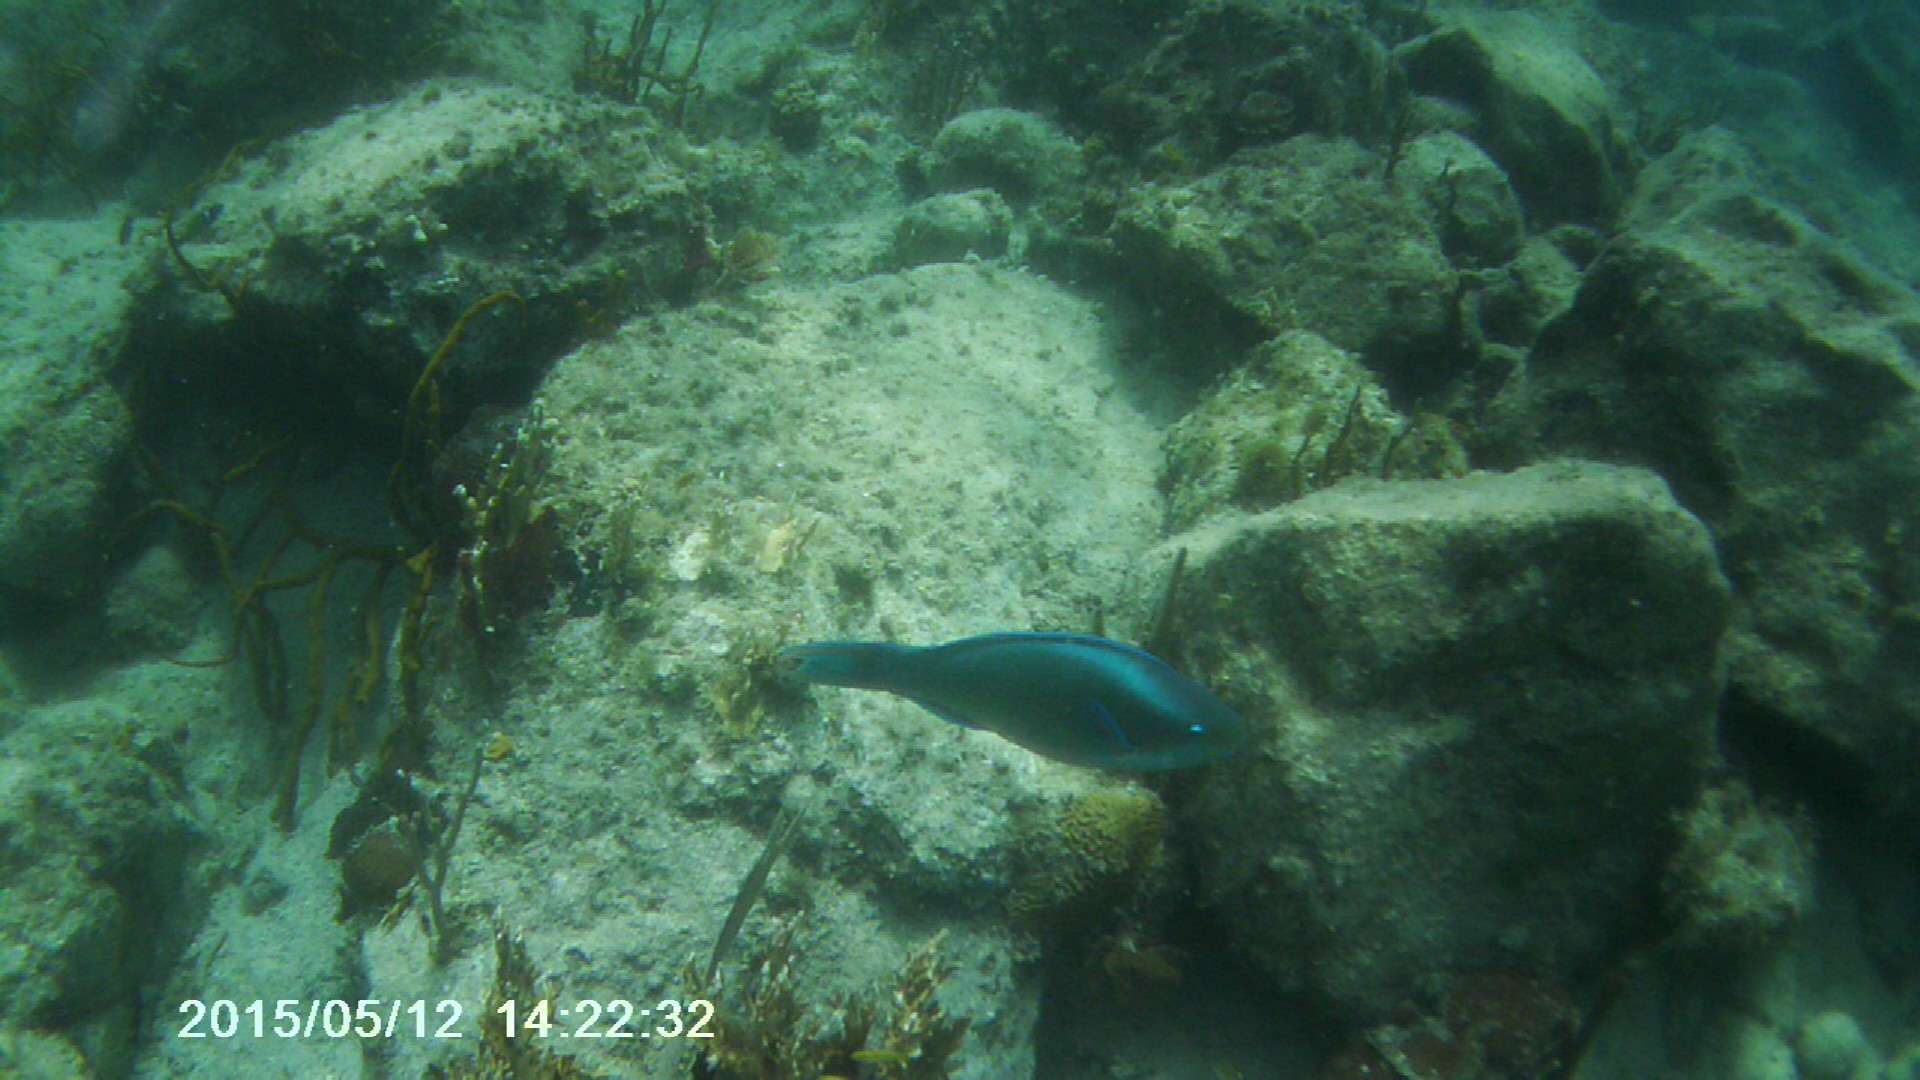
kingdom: Animalia
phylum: Chordata
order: Perciformes
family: Scaridae
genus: Scarus
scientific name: Scarus vetula
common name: Queen parrotfish
